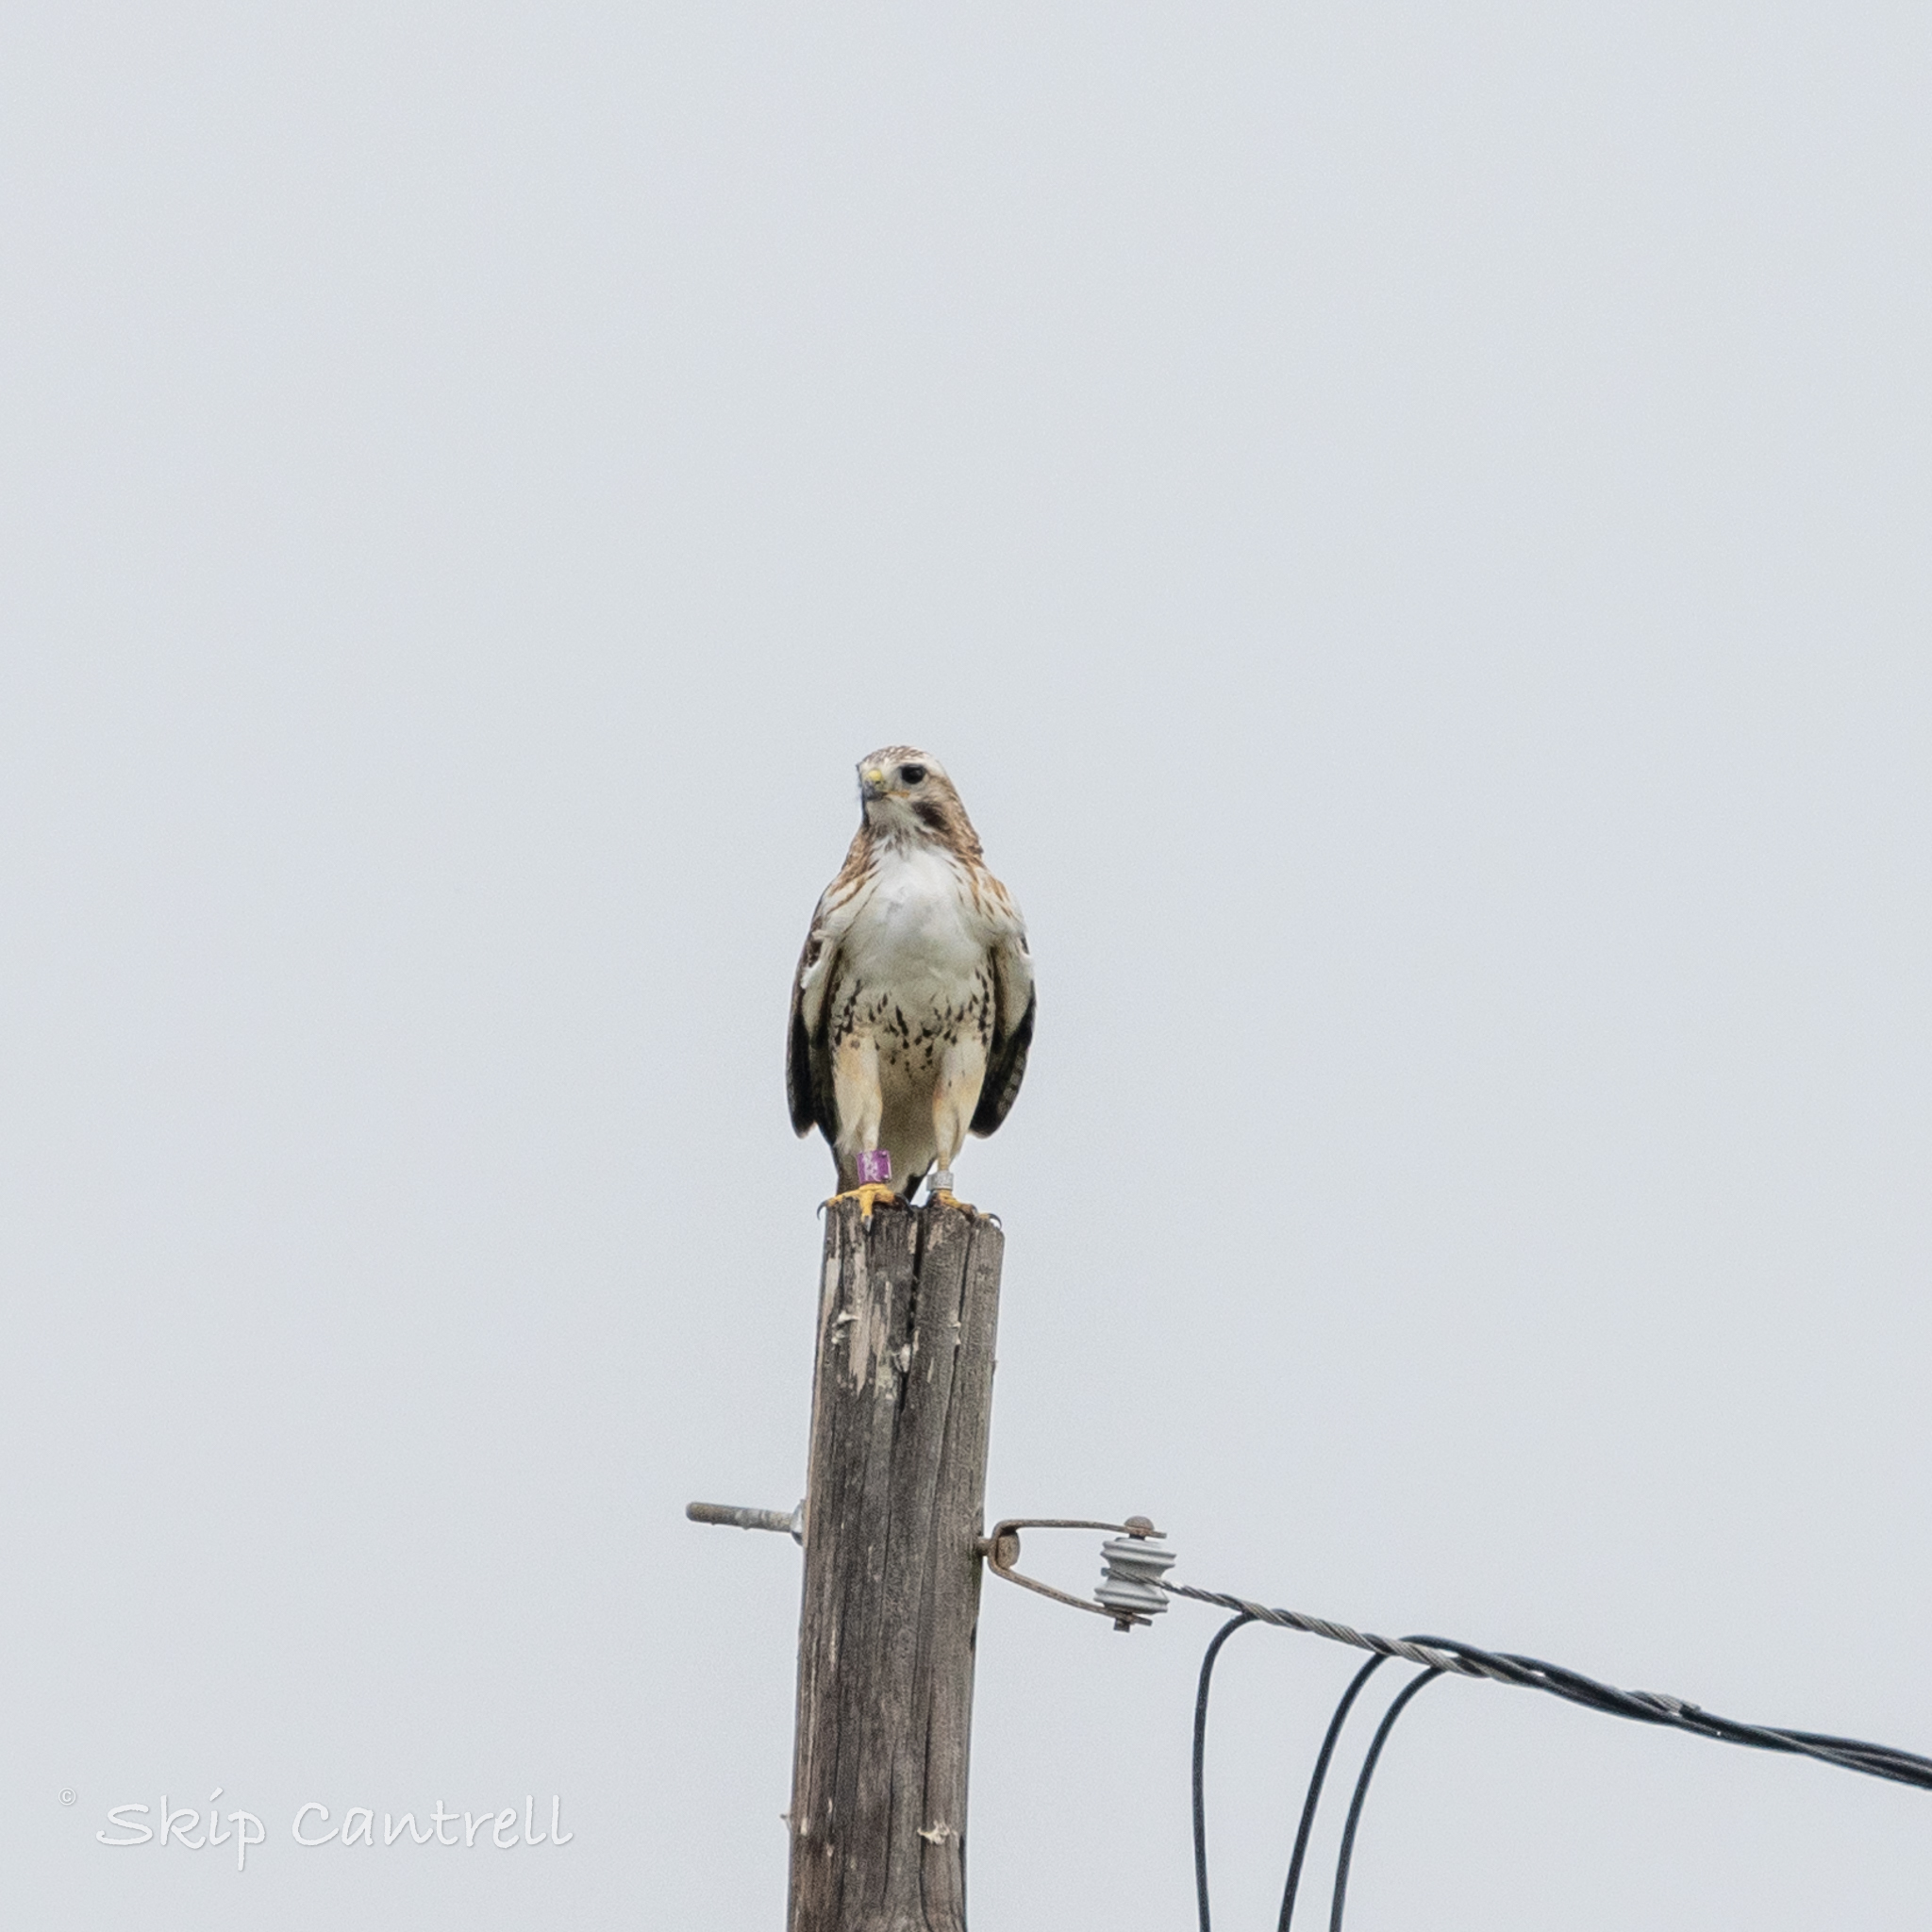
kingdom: Animalia
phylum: Chordata
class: Aves
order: Accipitriformes
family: Accipitridae
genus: Buteo
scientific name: Buteo jamaicensis
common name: Red-tailed hawk
